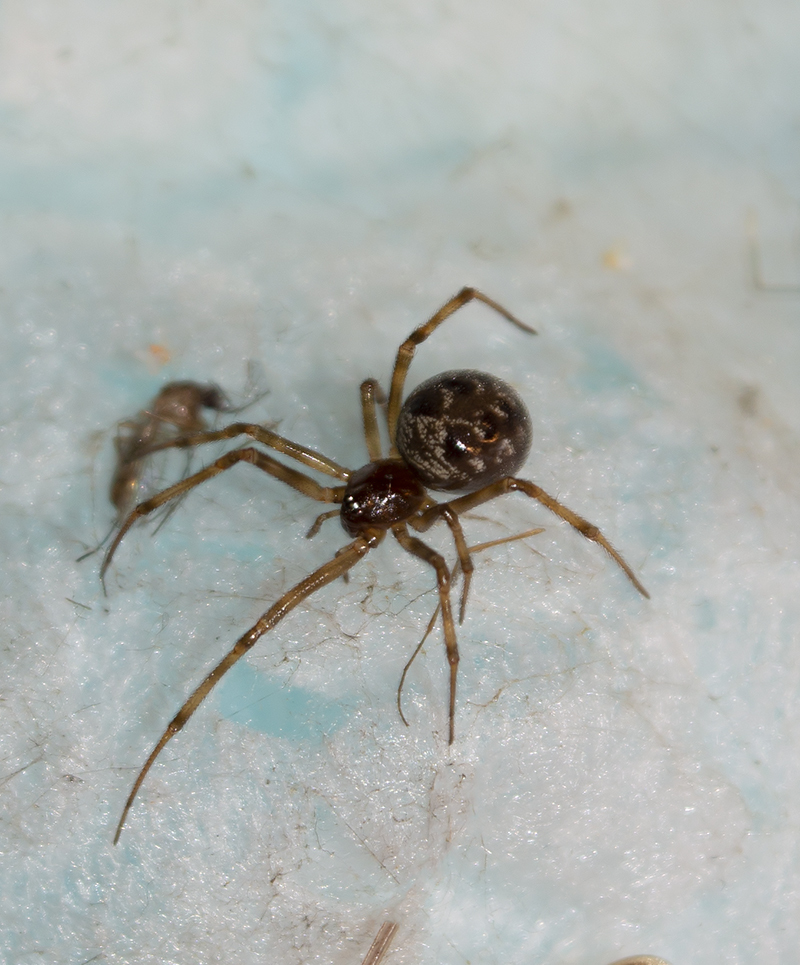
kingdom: Animalia
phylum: Arthropoda
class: Arachnida
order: Araneae
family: Theridiidae
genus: Steatoda
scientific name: Steatoda triangulosa
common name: Triangulate bud spider
